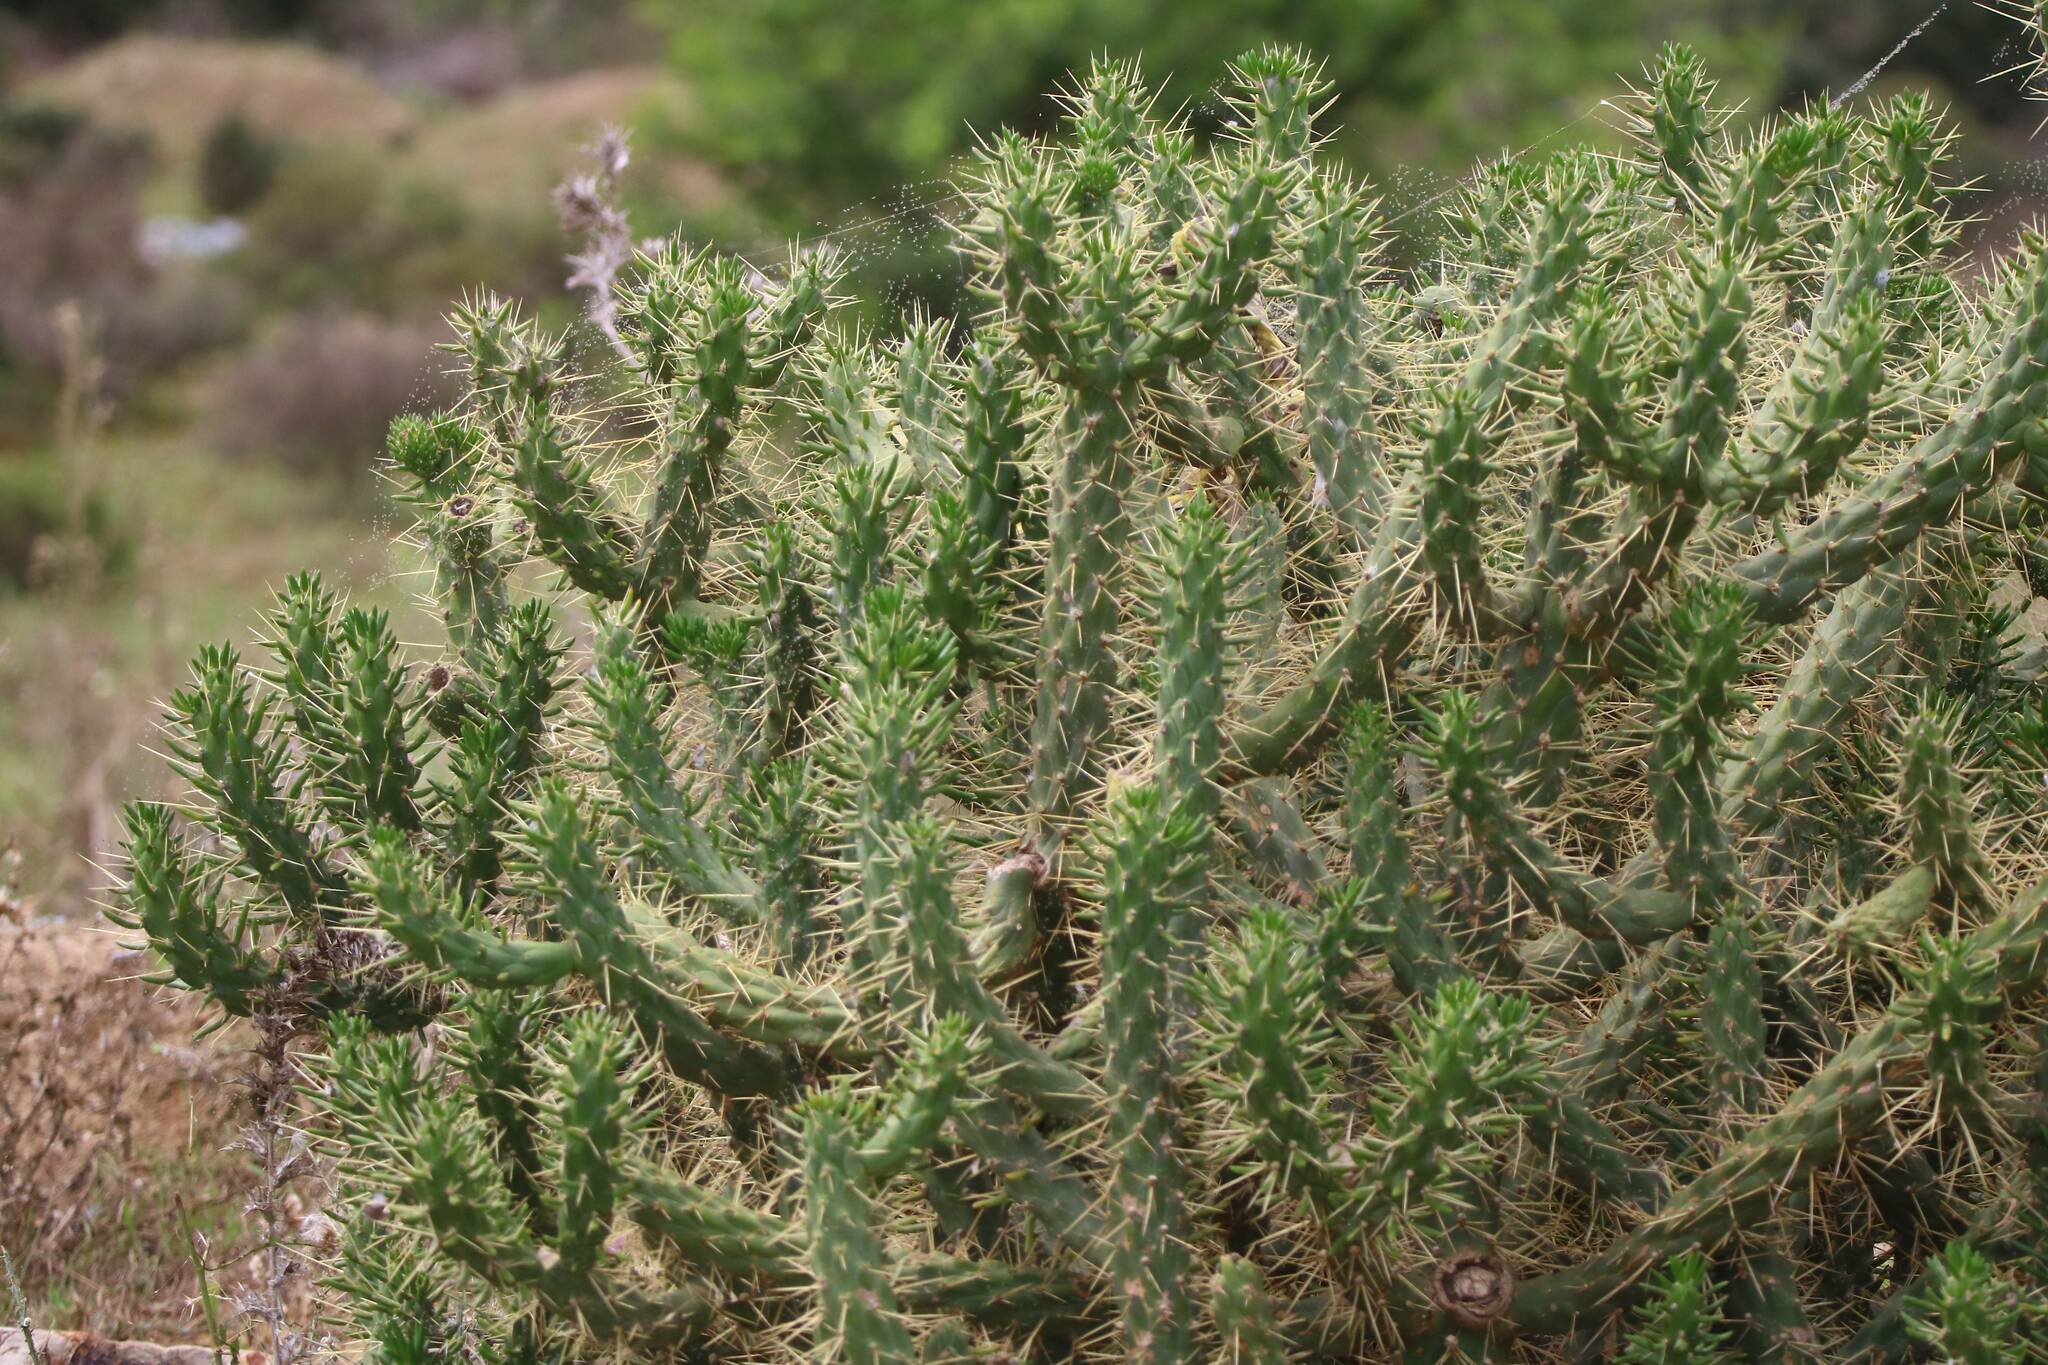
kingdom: Plantae
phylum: Tracheophyta
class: Magnoliopsida
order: Caryophyllales
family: Cactaceae
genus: Austrocylindropuntia
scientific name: Austrocylindropuntia subulata
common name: Eve's needle cactus
